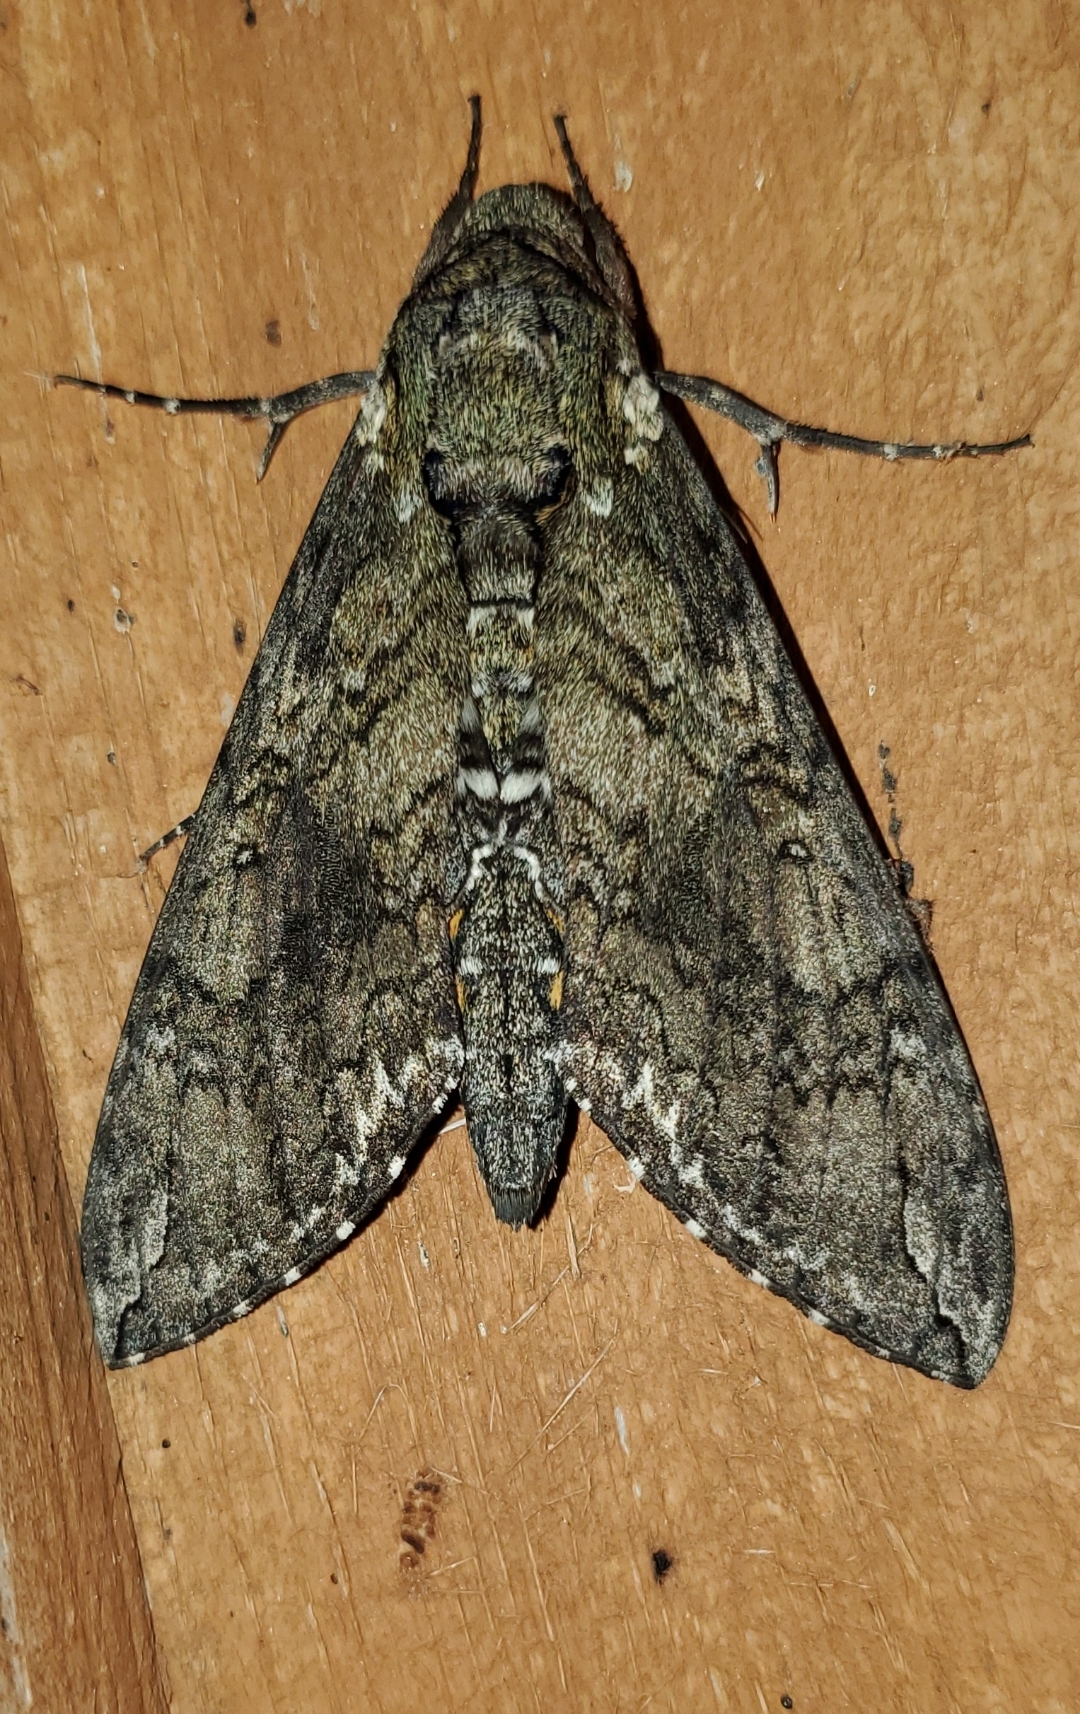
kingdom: Animalia
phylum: Arthropoda
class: Insecta
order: Lepidoptera
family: Sphingidae
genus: Manduca
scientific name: Manduca sexta
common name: Carolina sphinx
